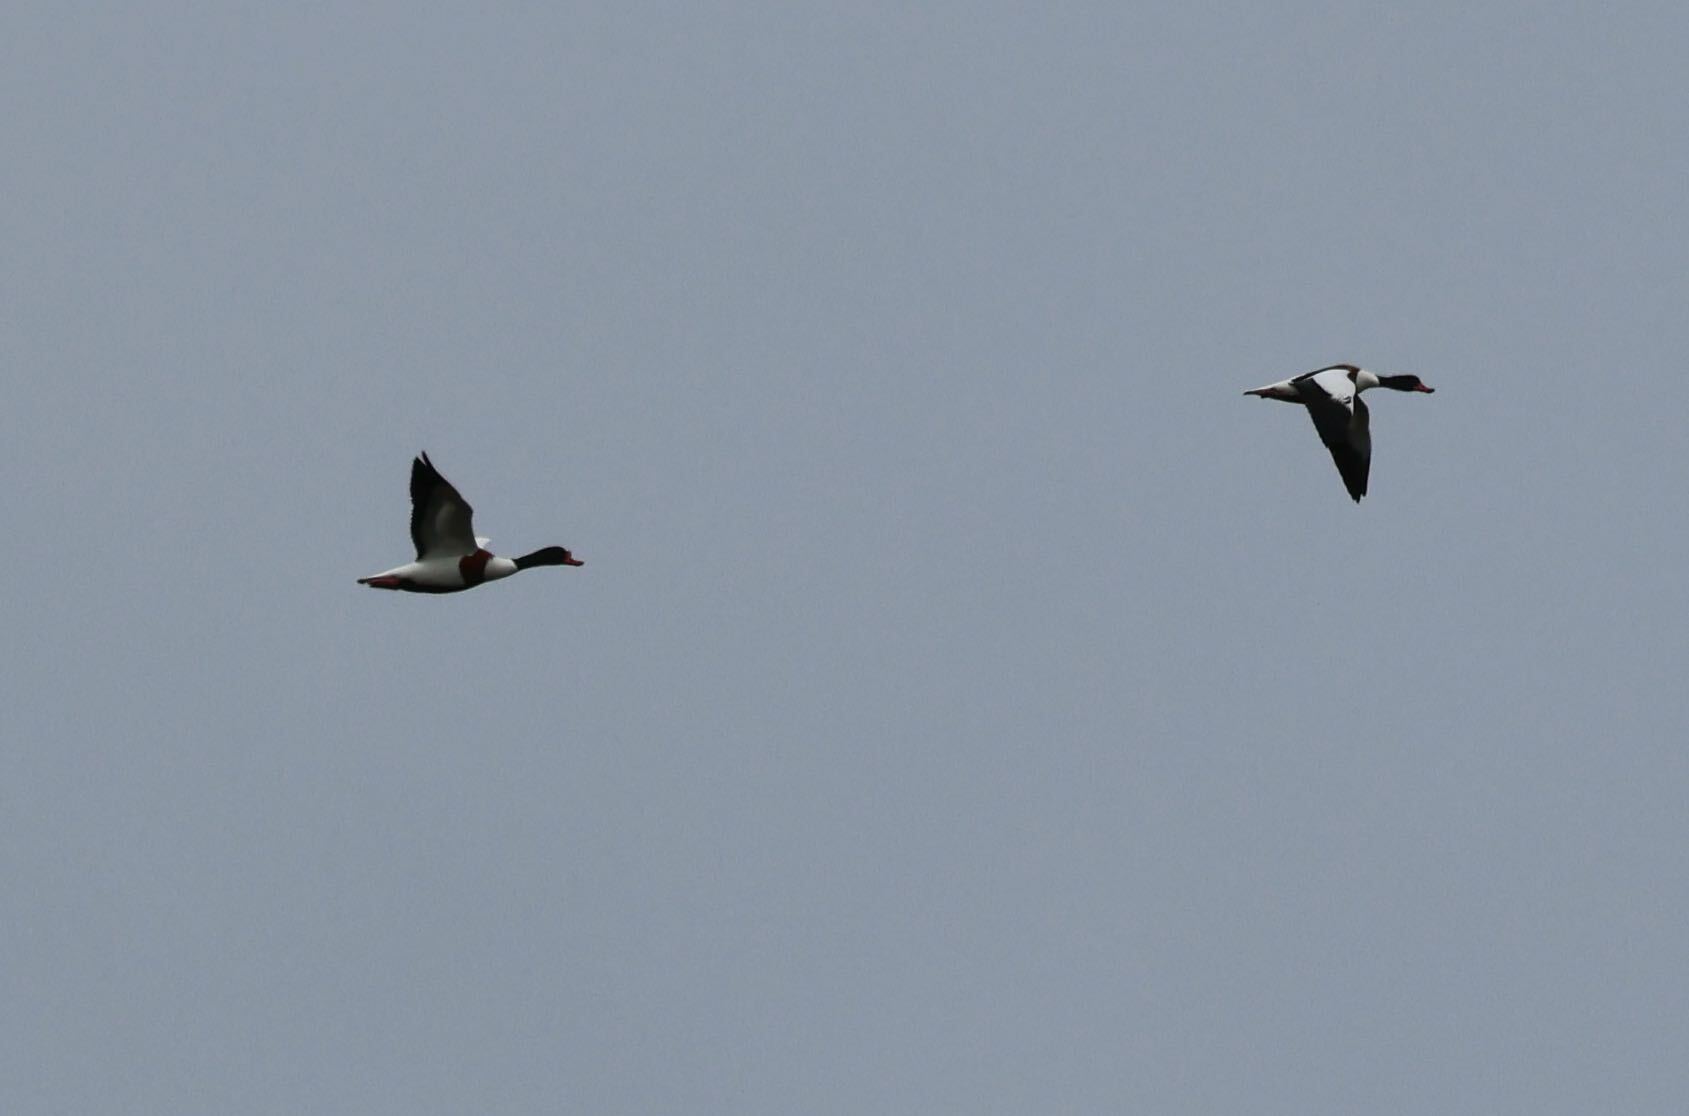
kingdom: Animalia
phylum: Chordata
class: Aves
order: Anseriformes
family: Anatidae
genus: Tadorna
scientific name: Tadorna tadorna
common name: Common shelduck
